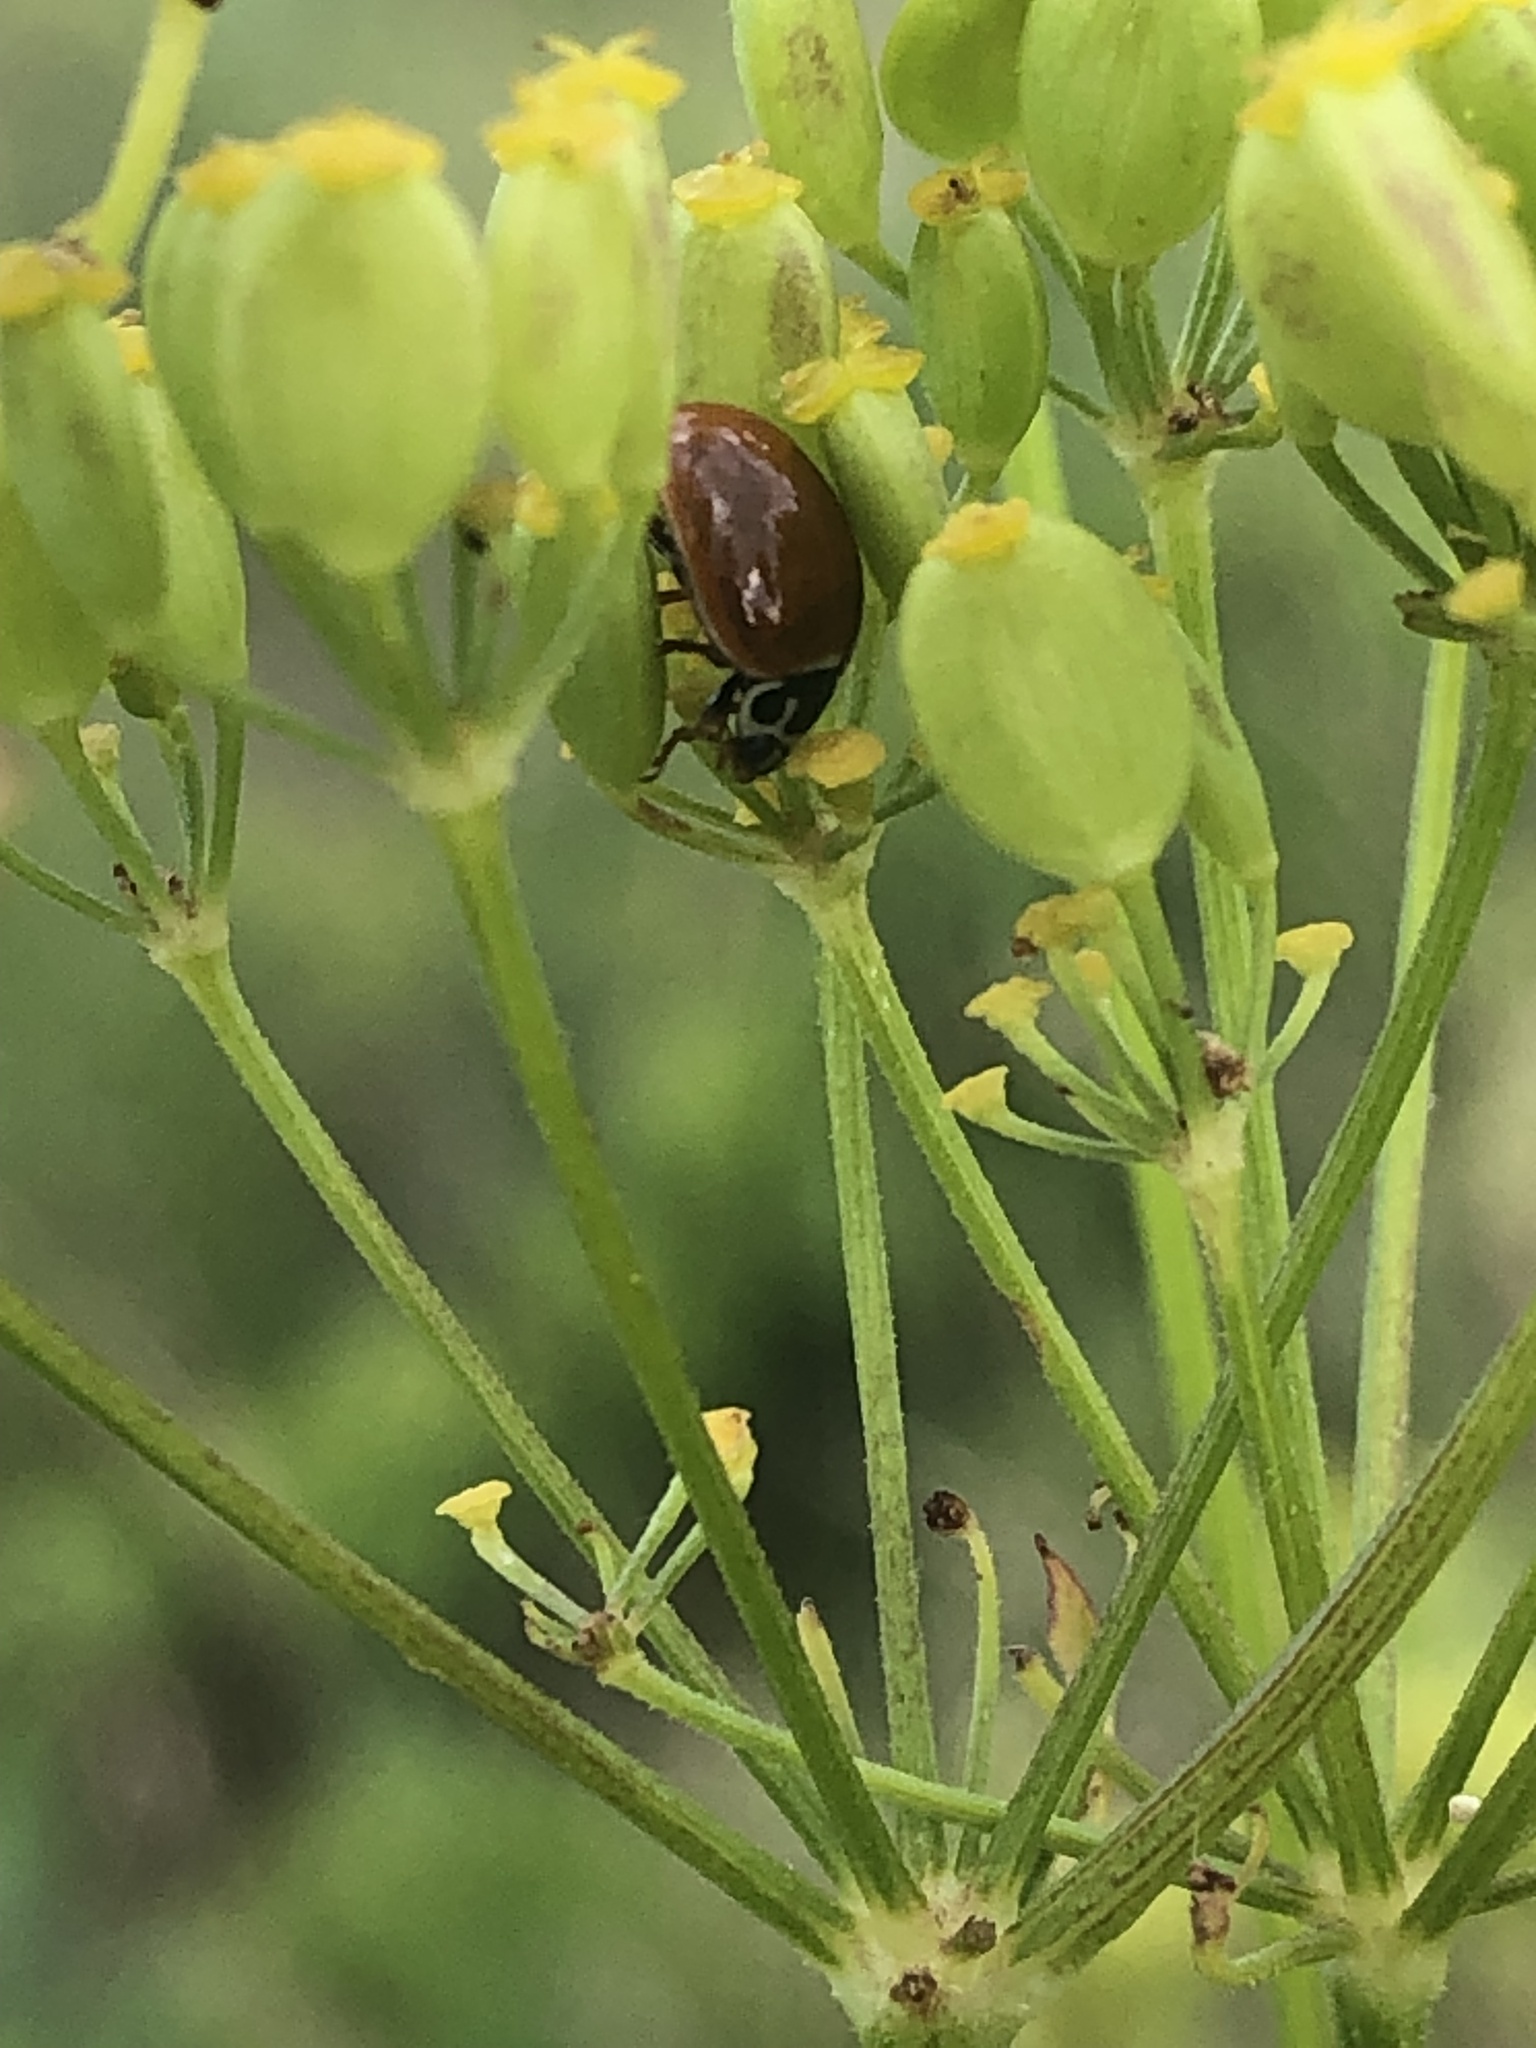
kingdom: Animalia
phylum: Arthropoda
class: Insecta
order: Coleoptera
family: Coccinellidae
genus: Cycloneda
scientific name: Cycloneda munda
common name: Polished lady beetle
